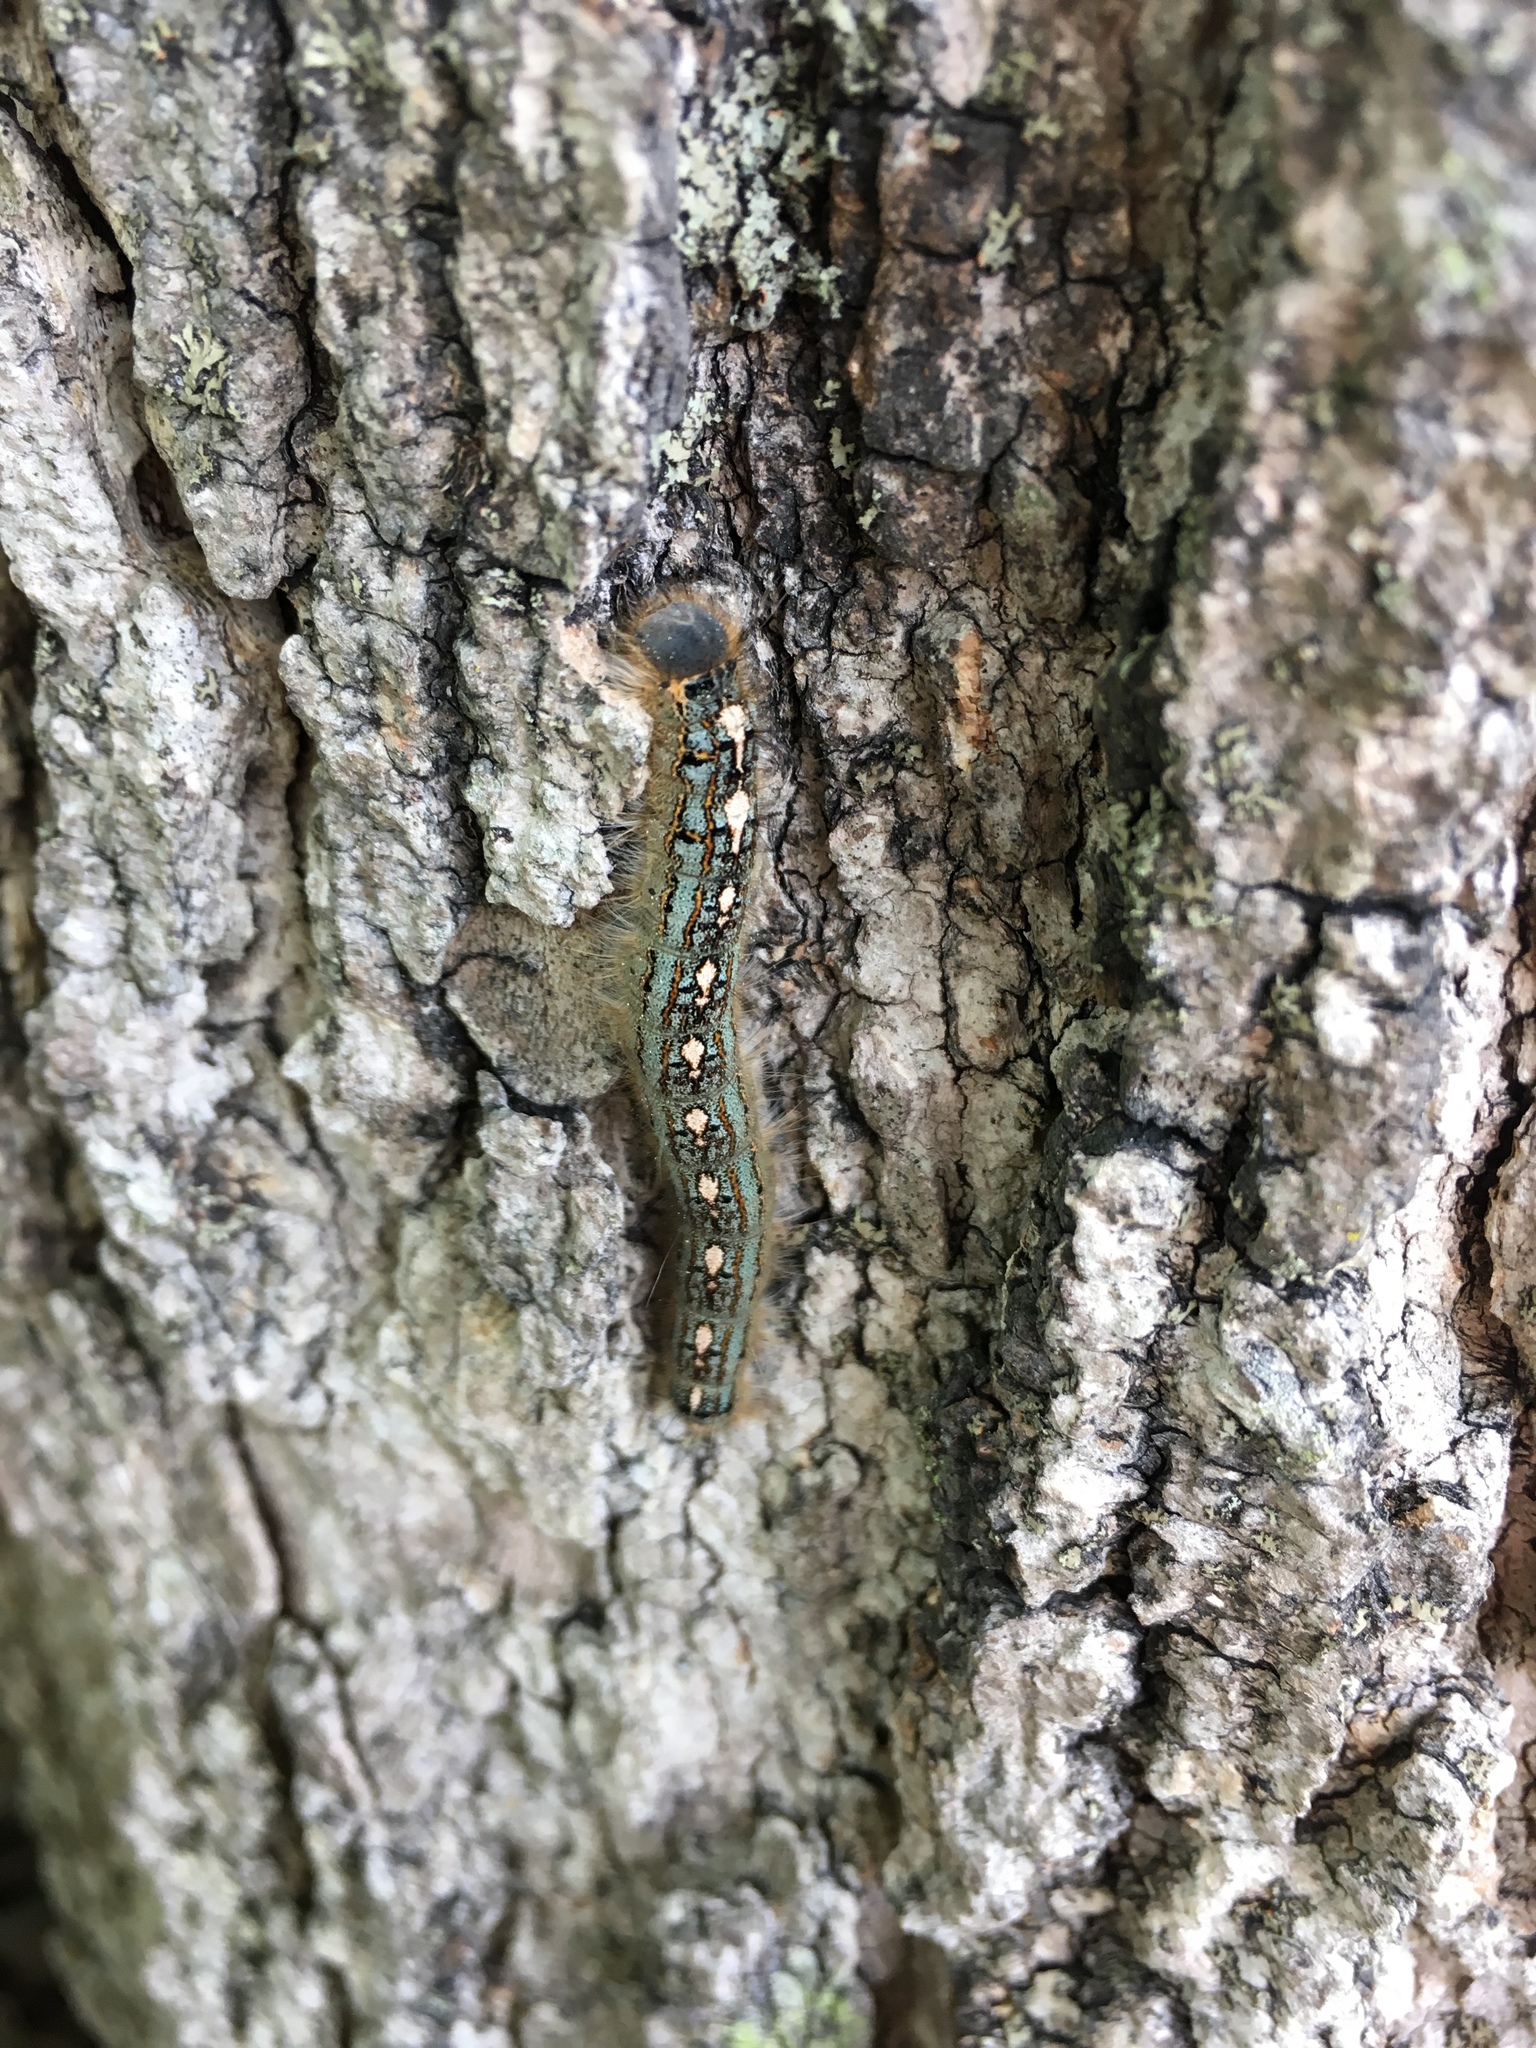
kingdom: Animalia
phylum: Arthropoda
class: Insecta
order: Lepidoptera
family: Lasiocampidae
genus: Malacosoma
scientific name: Malacosoma disstria
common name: Forest tent caterpillar
